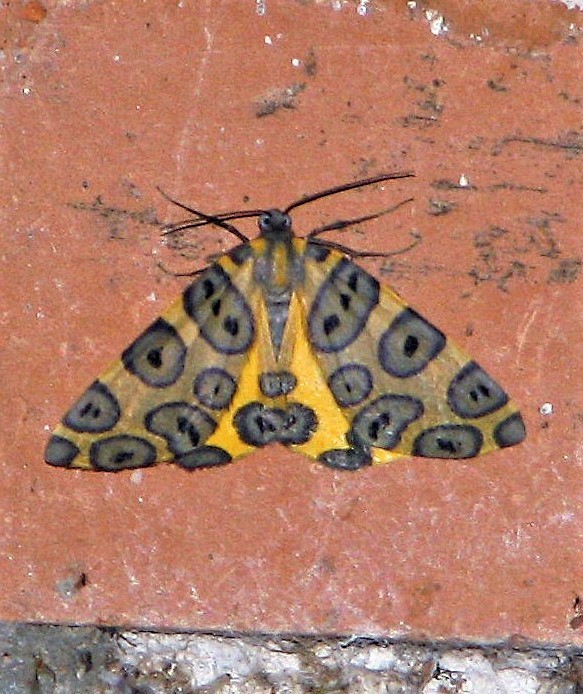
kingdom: Animalia
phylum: Arthropoda
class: Insecta
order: Lepidoptera
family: Geometridae
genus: Pantherodes
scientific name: Pantherodes pardalaria
